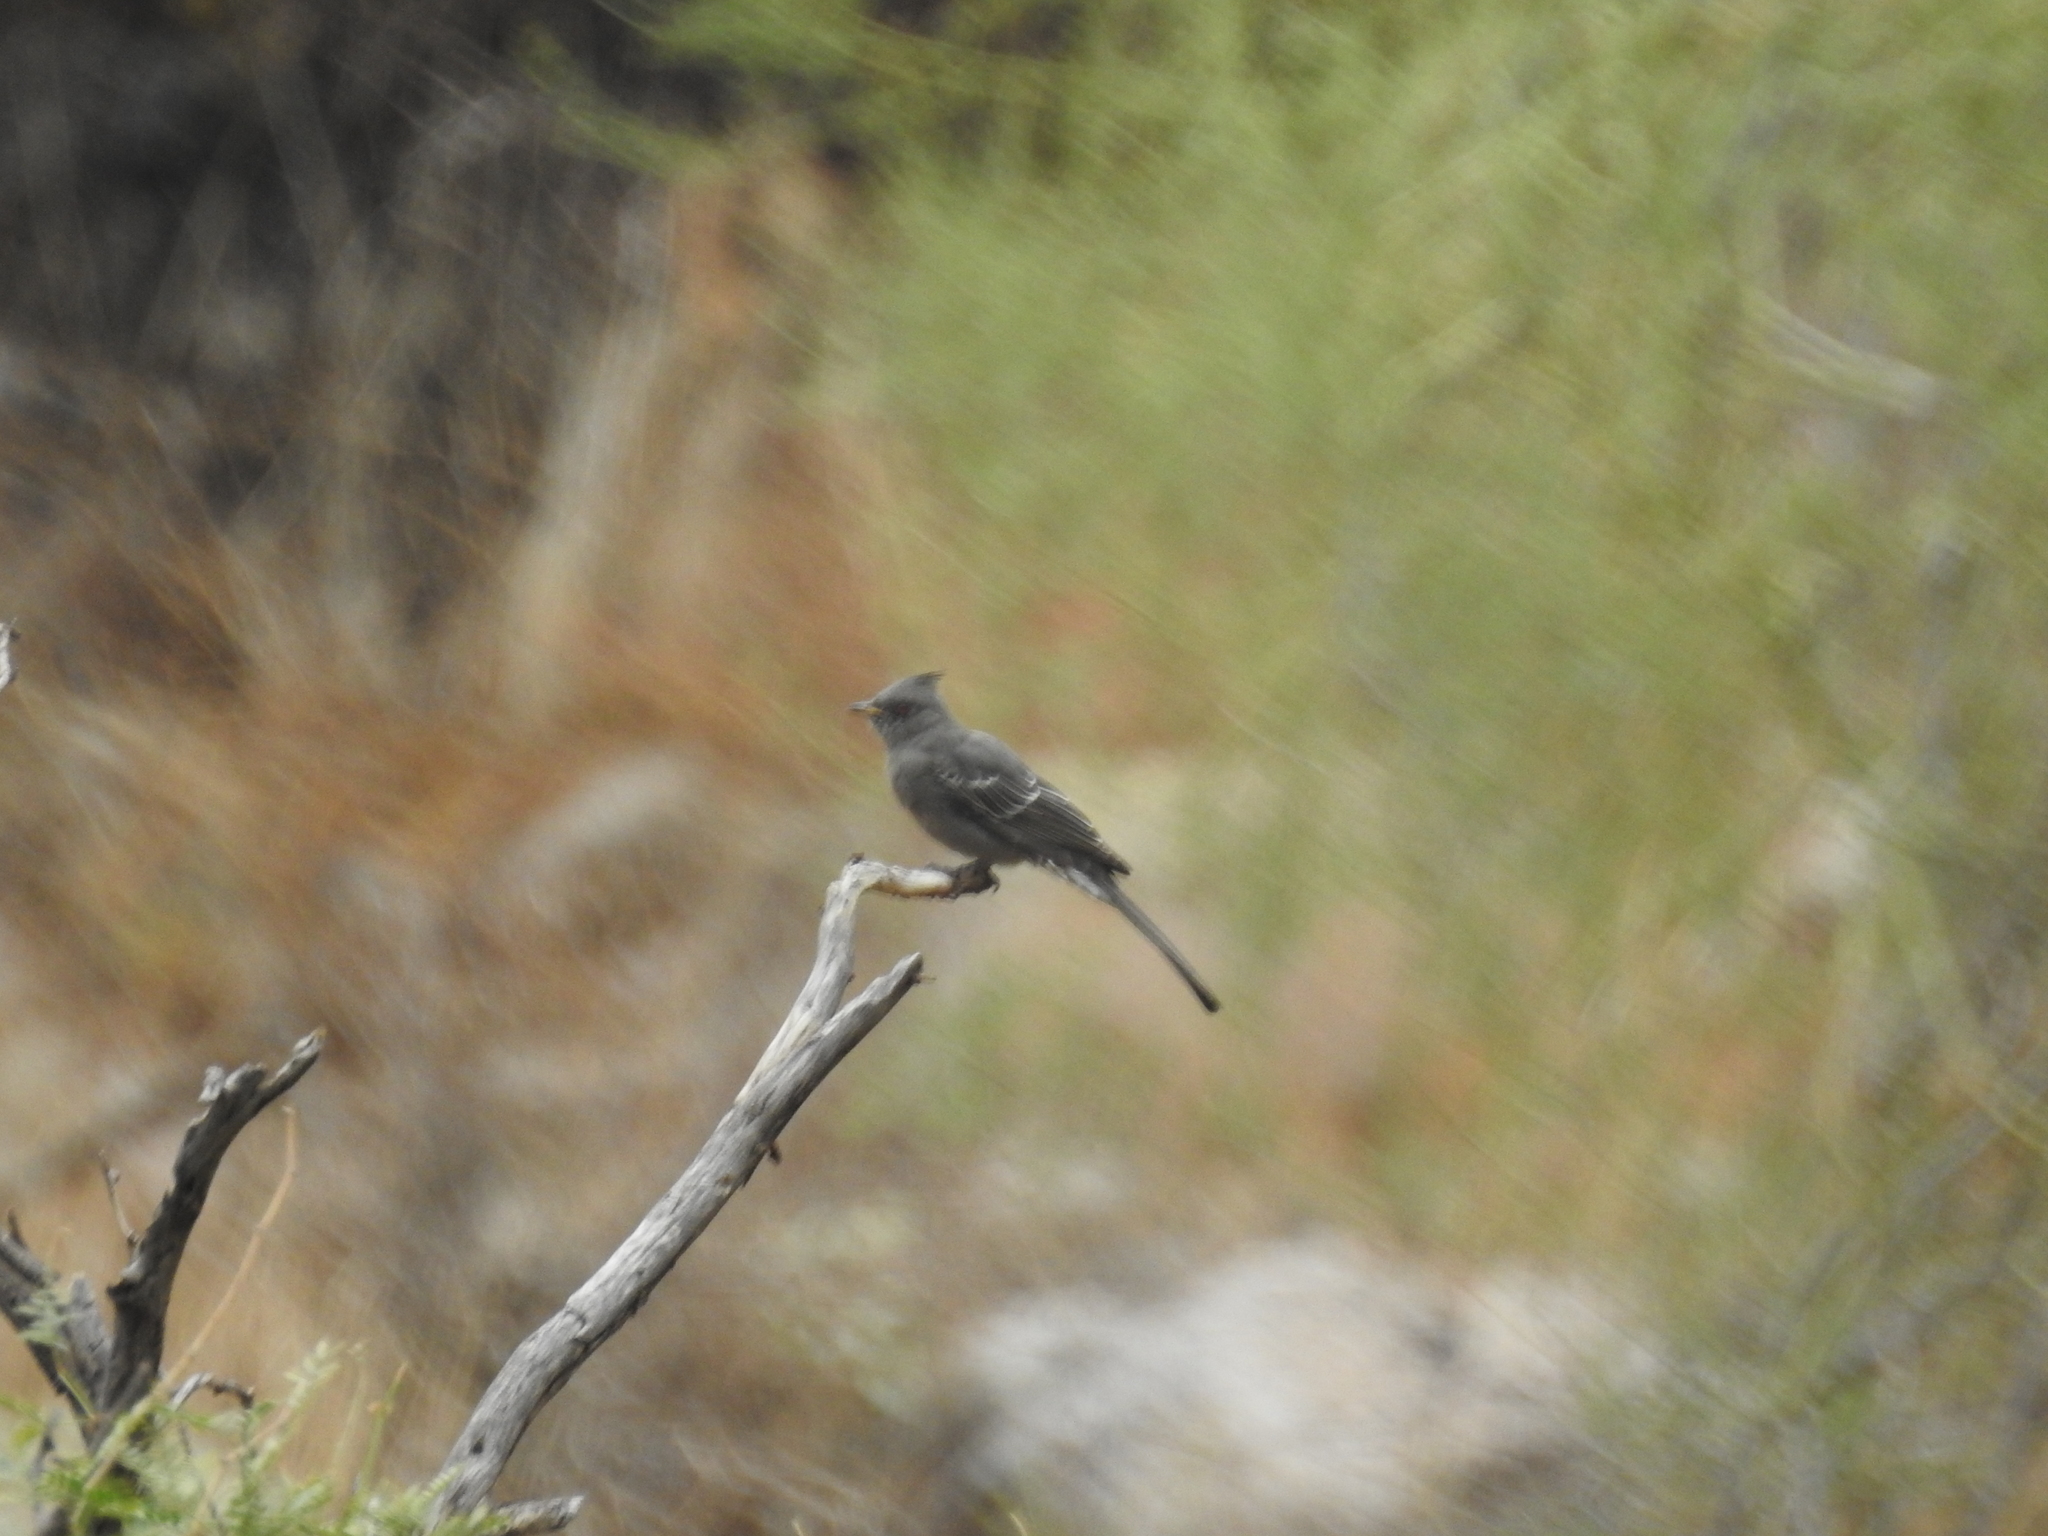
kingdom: Animalia
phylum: Chordata
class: Aves
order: Passeriformes
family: Ptilogonatidae
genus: Phainopepla
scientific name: Phainopepla nitens
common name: Phainopepla
